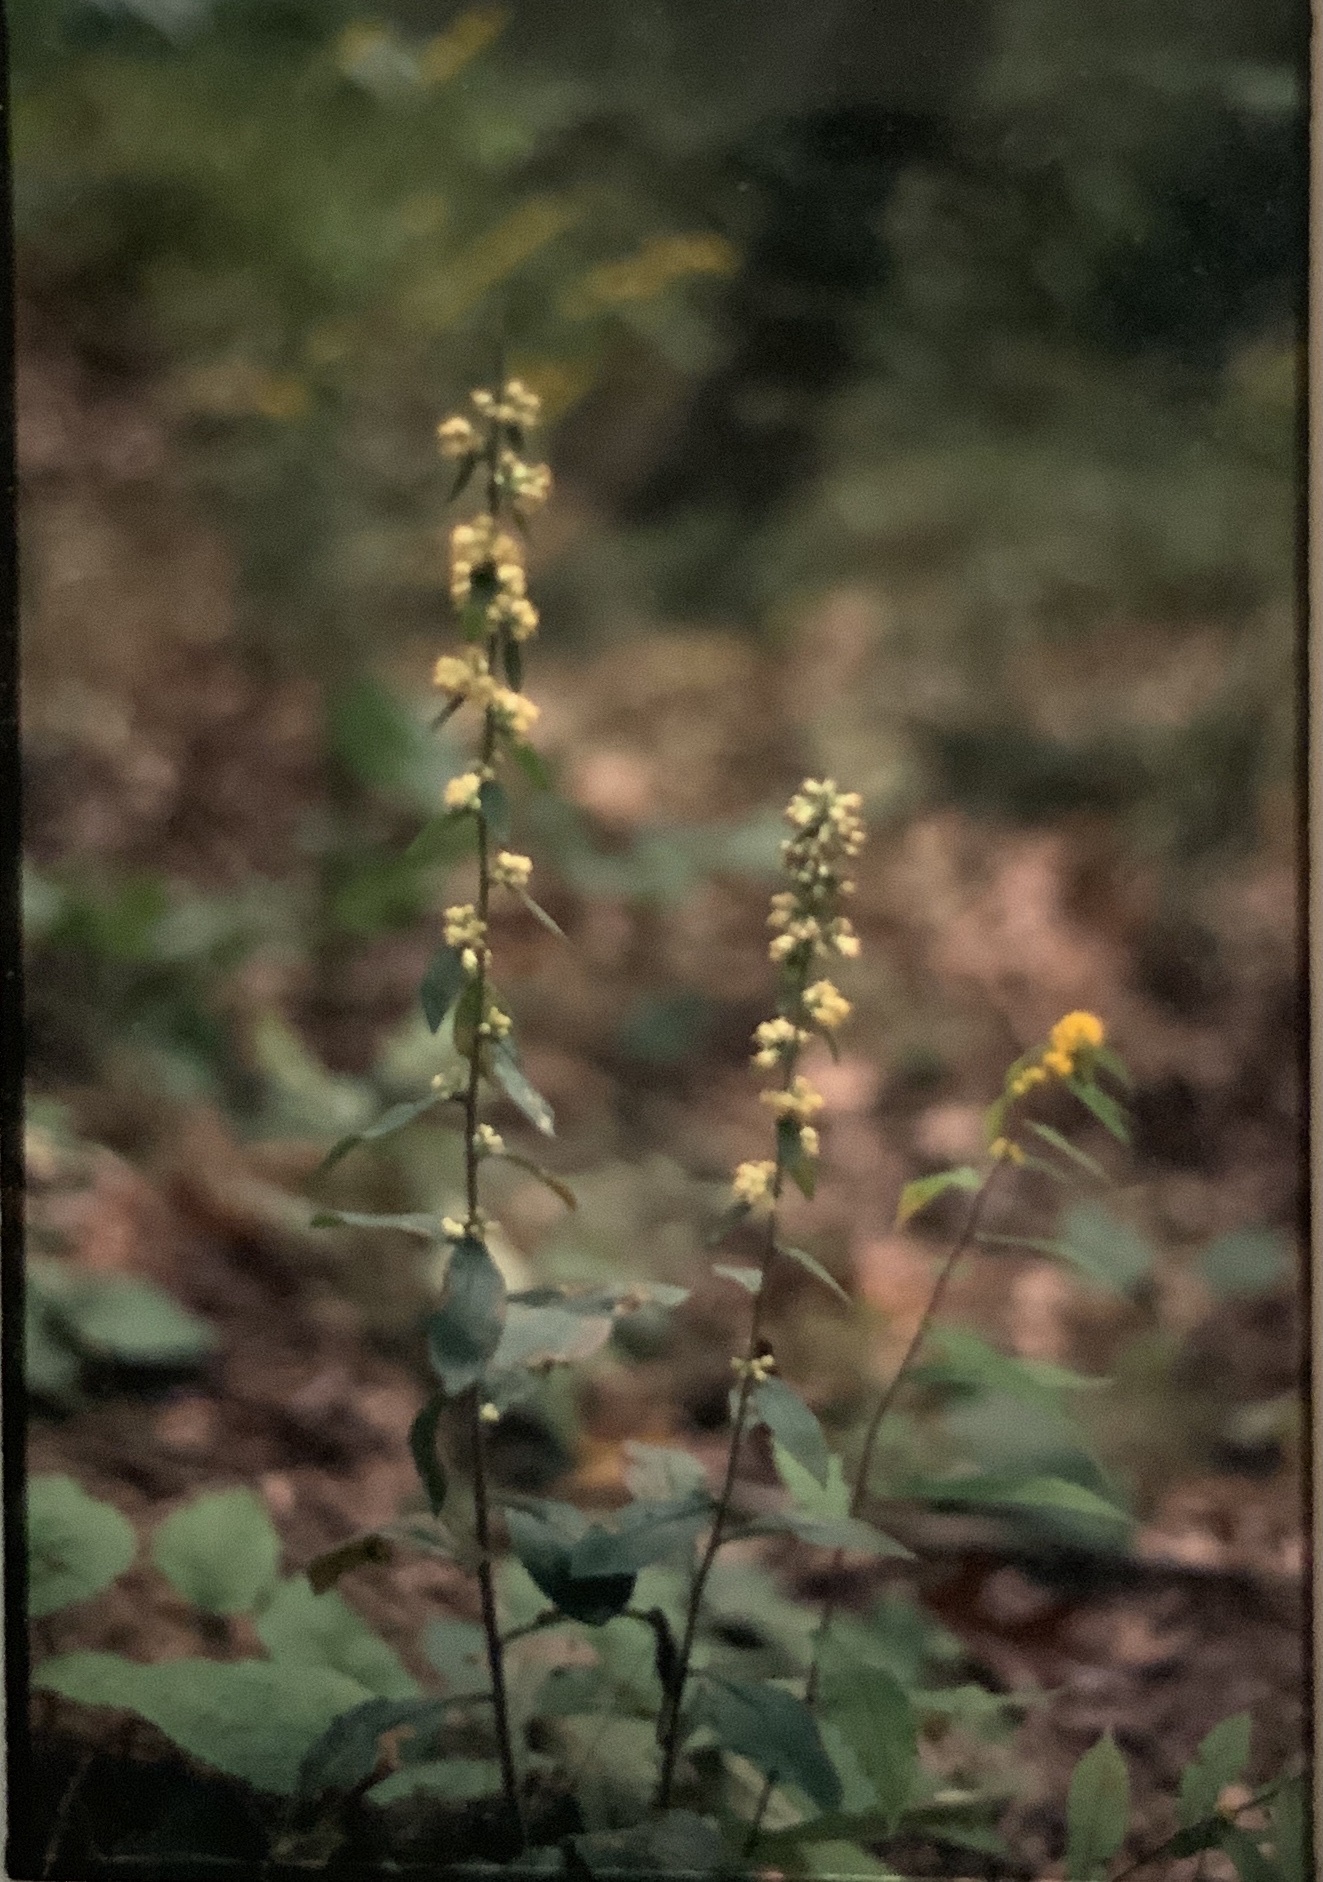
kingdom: Plantae
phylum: Tracheophyta
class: Magnoliopsida
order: Asterales
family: Asteraceae
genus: Solidago
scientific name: Solidago bicolor
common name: Silverrod
